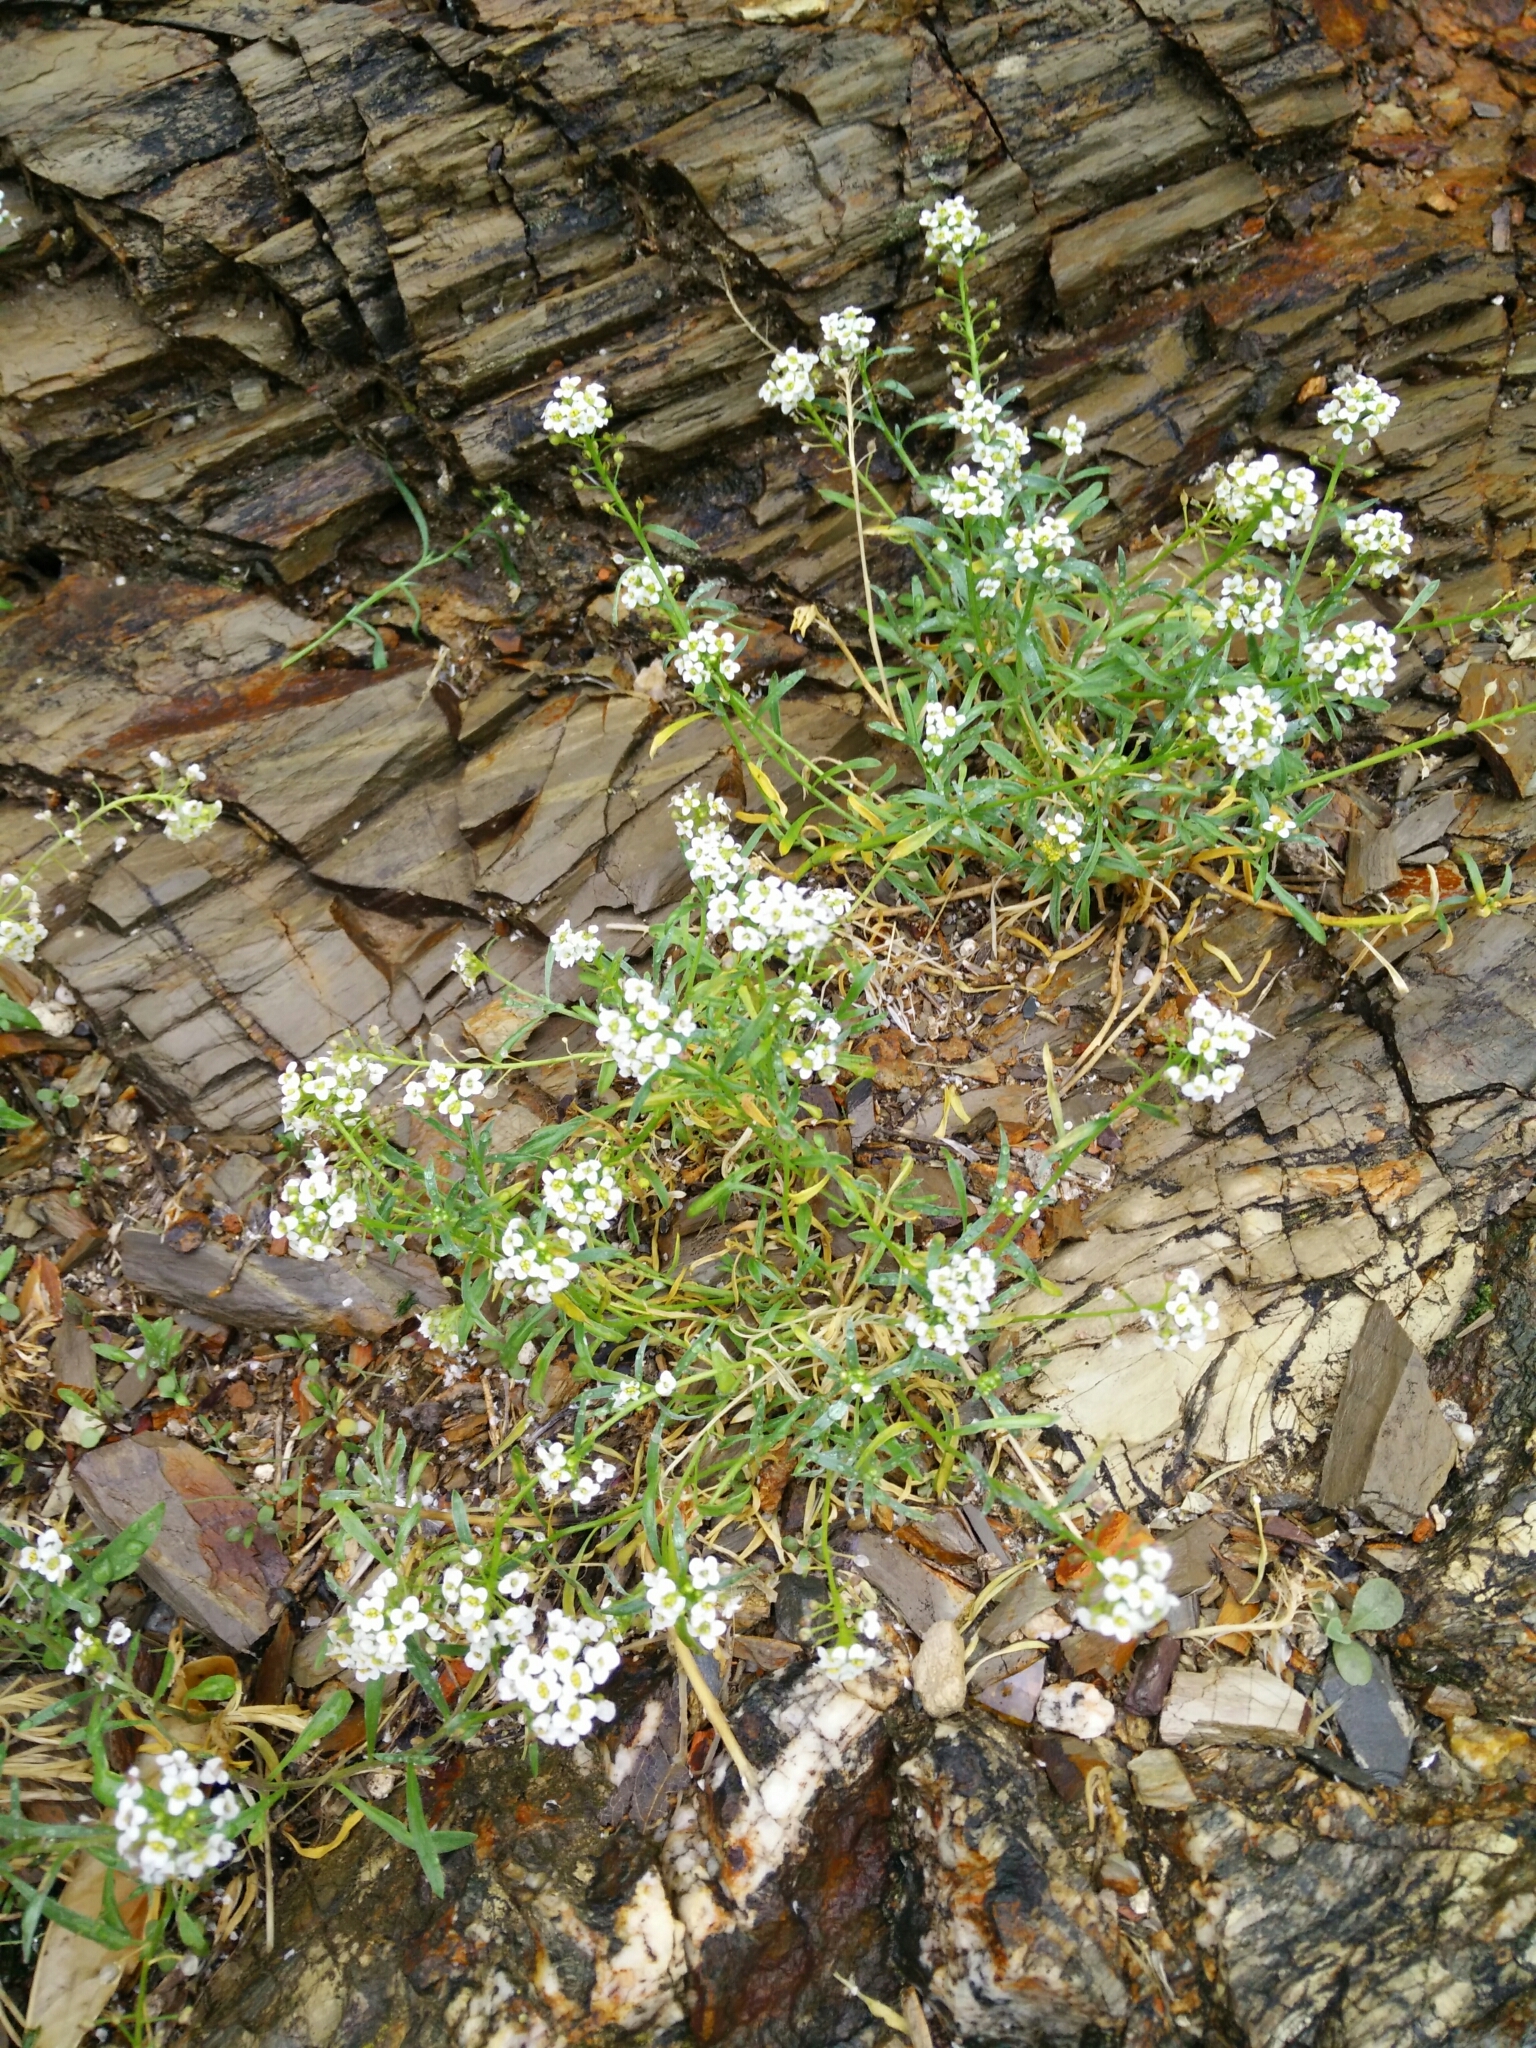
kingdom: Plantae
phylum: Tracheophyta
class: Magnoliopsida
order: Brassicales
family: Brassicaceae
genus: Lobularia
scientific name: Lobularia maritima
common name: Sweet alison
